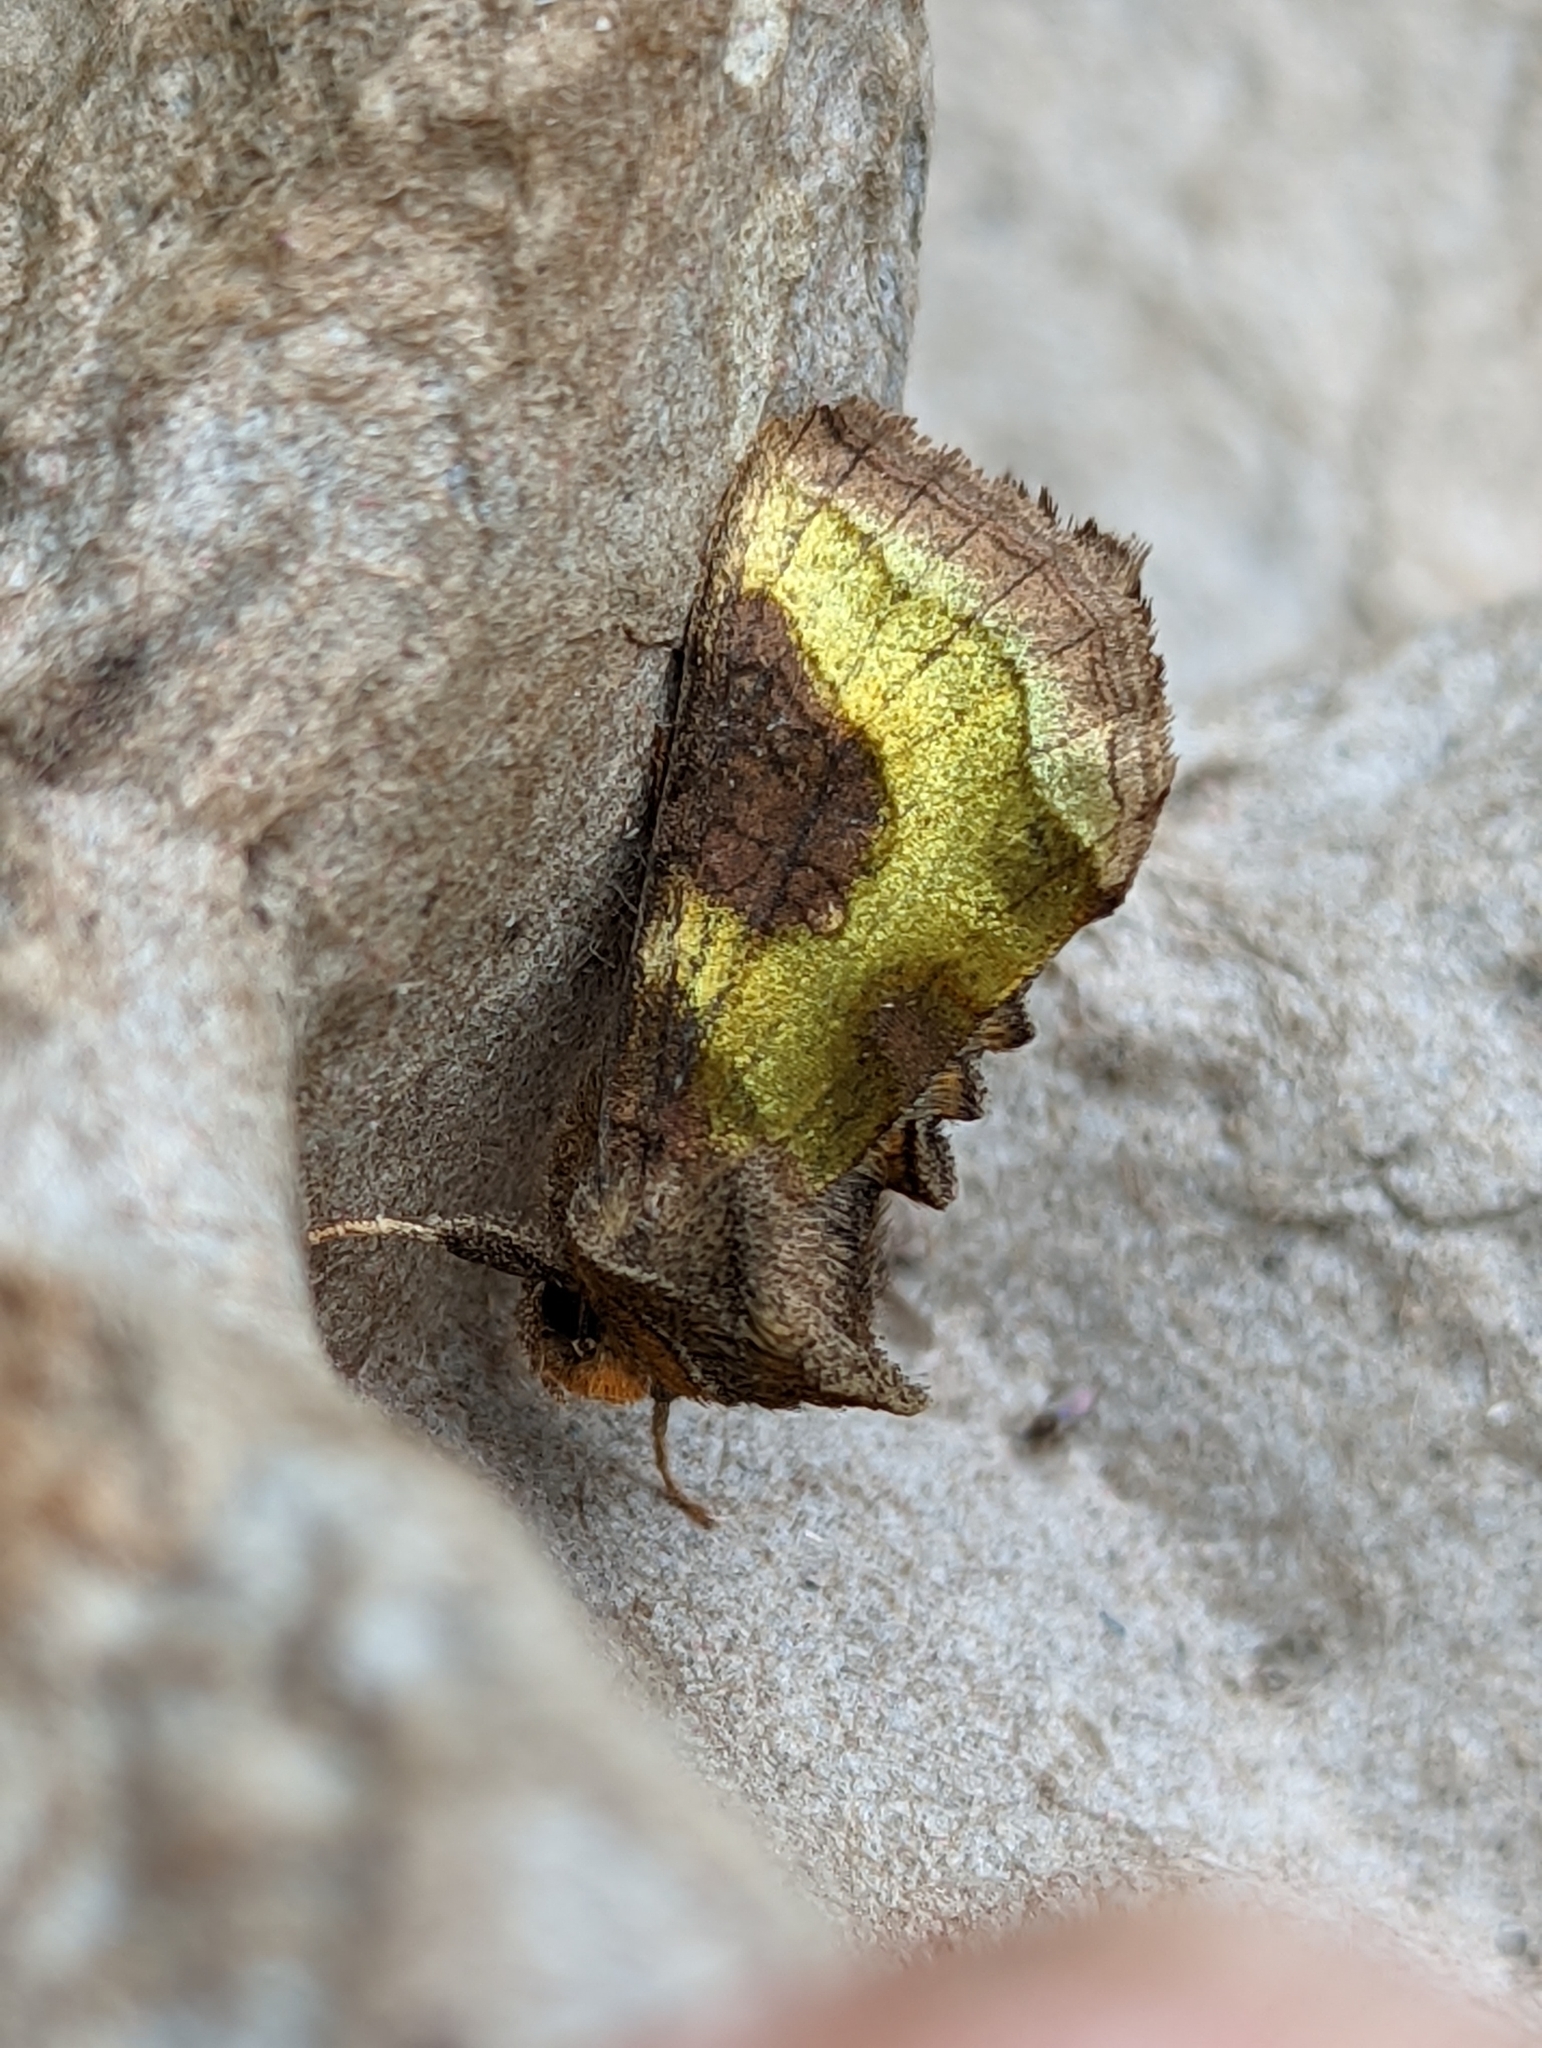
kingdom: Animalia
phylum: Arthropoda
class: Insecta
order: Lepidoptera
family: Noctuidae
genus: Diachrysia
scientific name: Diachrysia chrysitis
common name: Burnished brass
